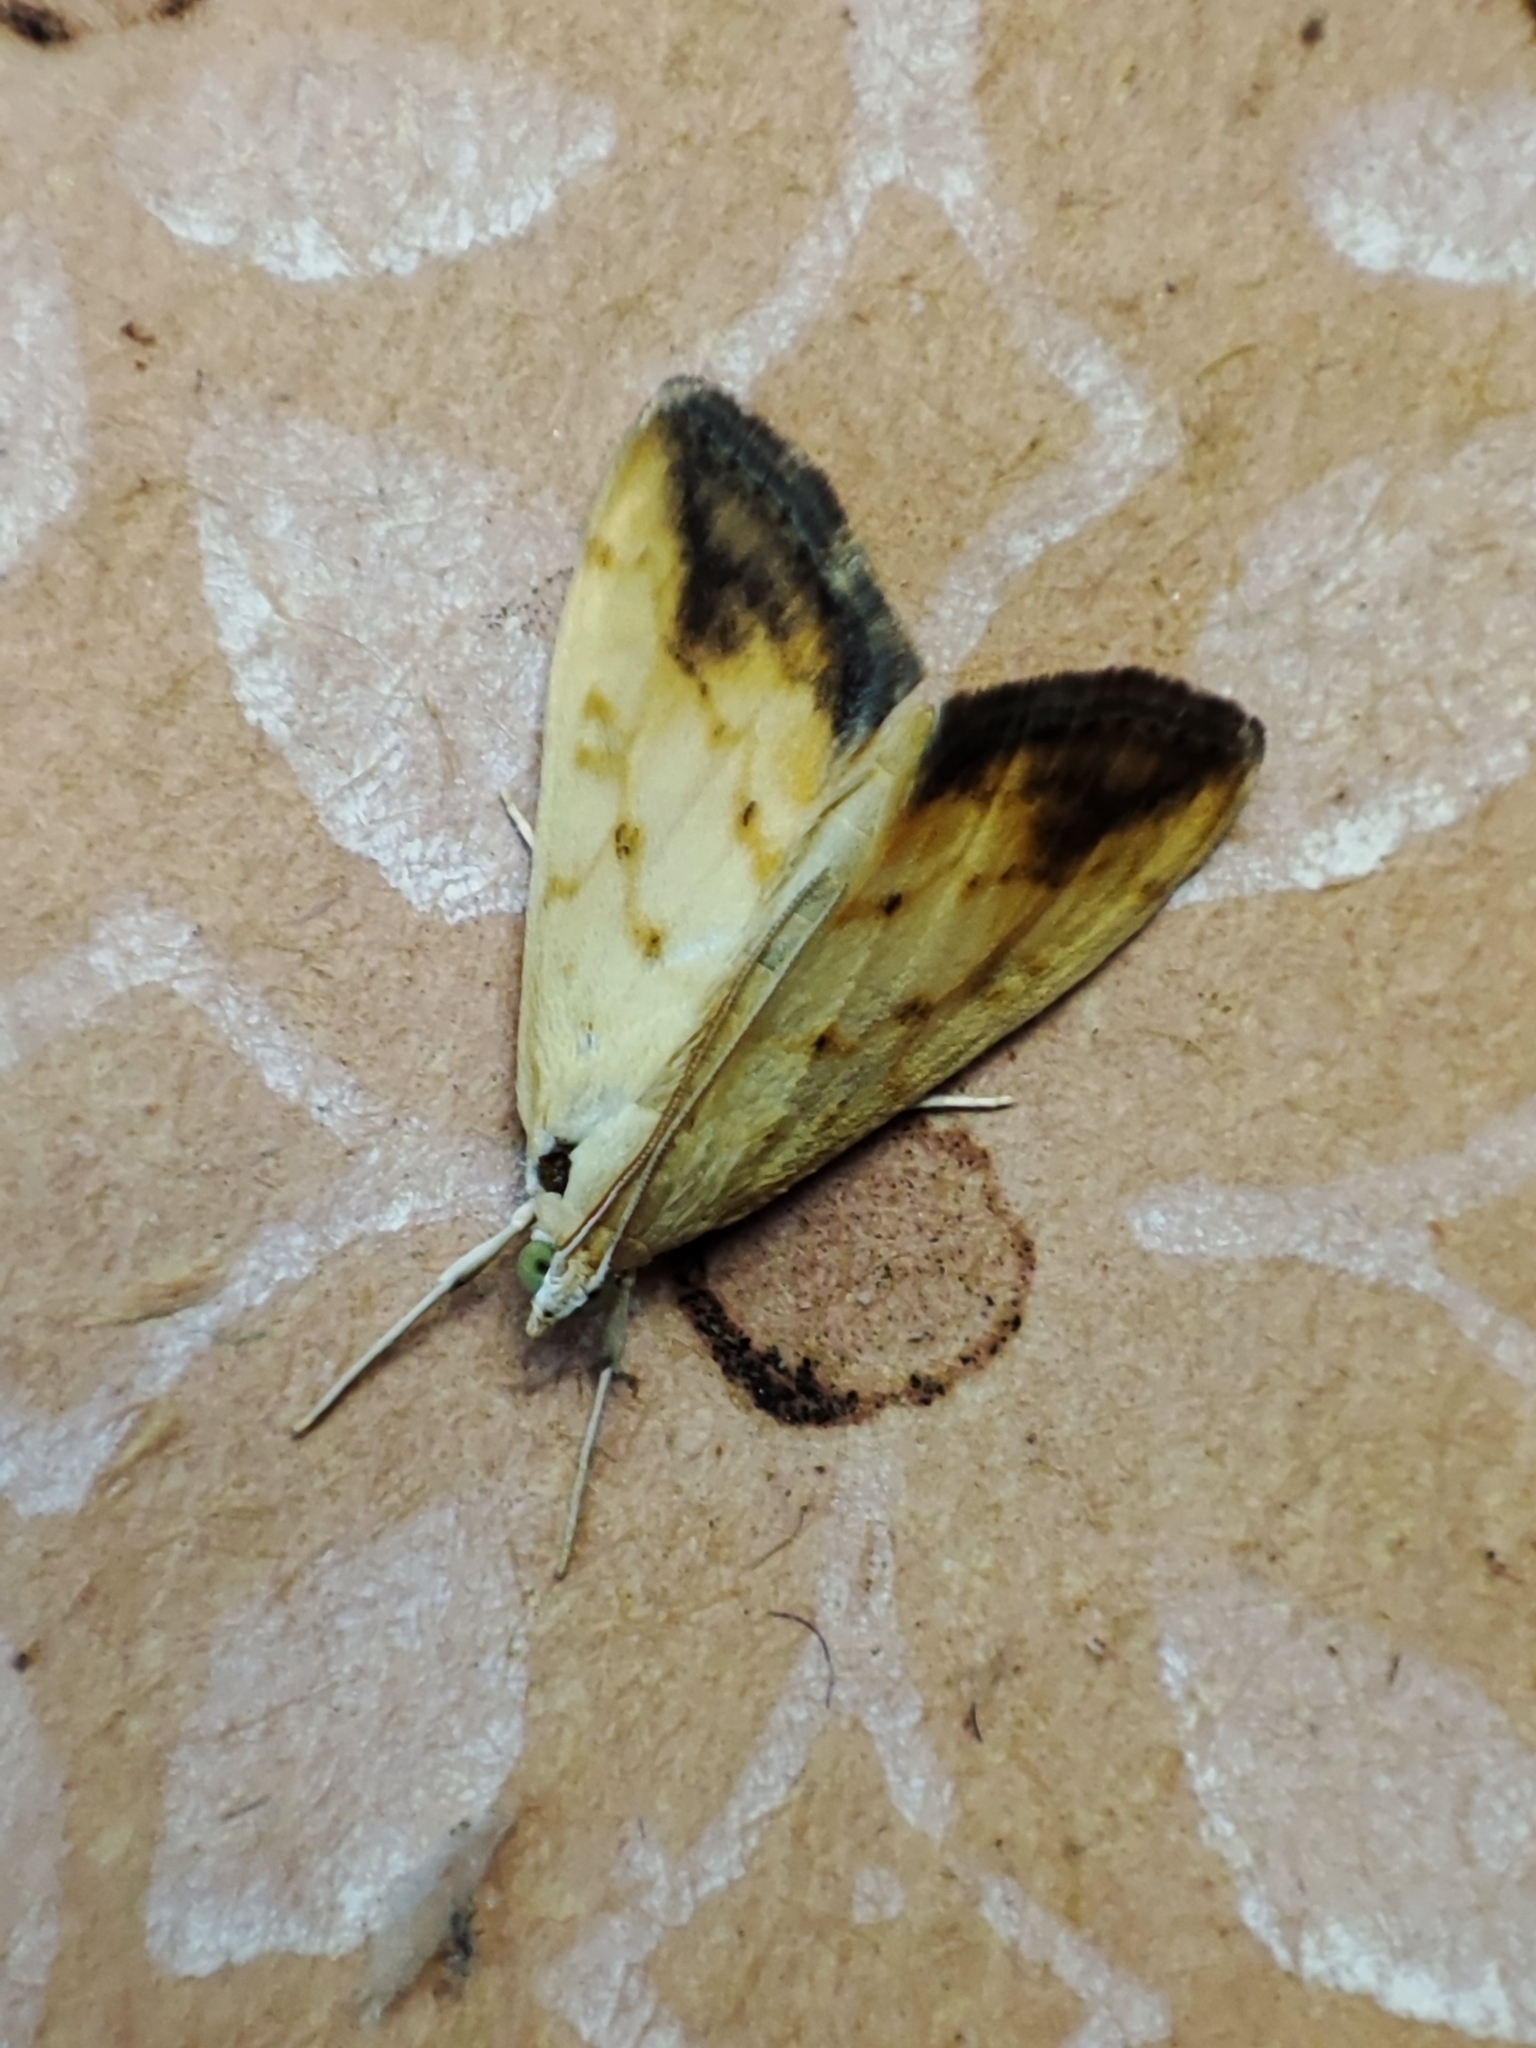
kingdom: Animalia
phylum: Arthropoda
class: Insecta
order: Lepidoptera
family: Crambidae
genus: Evergestis
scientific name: Evergestis extimalis
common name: Marbled yellow pearl
